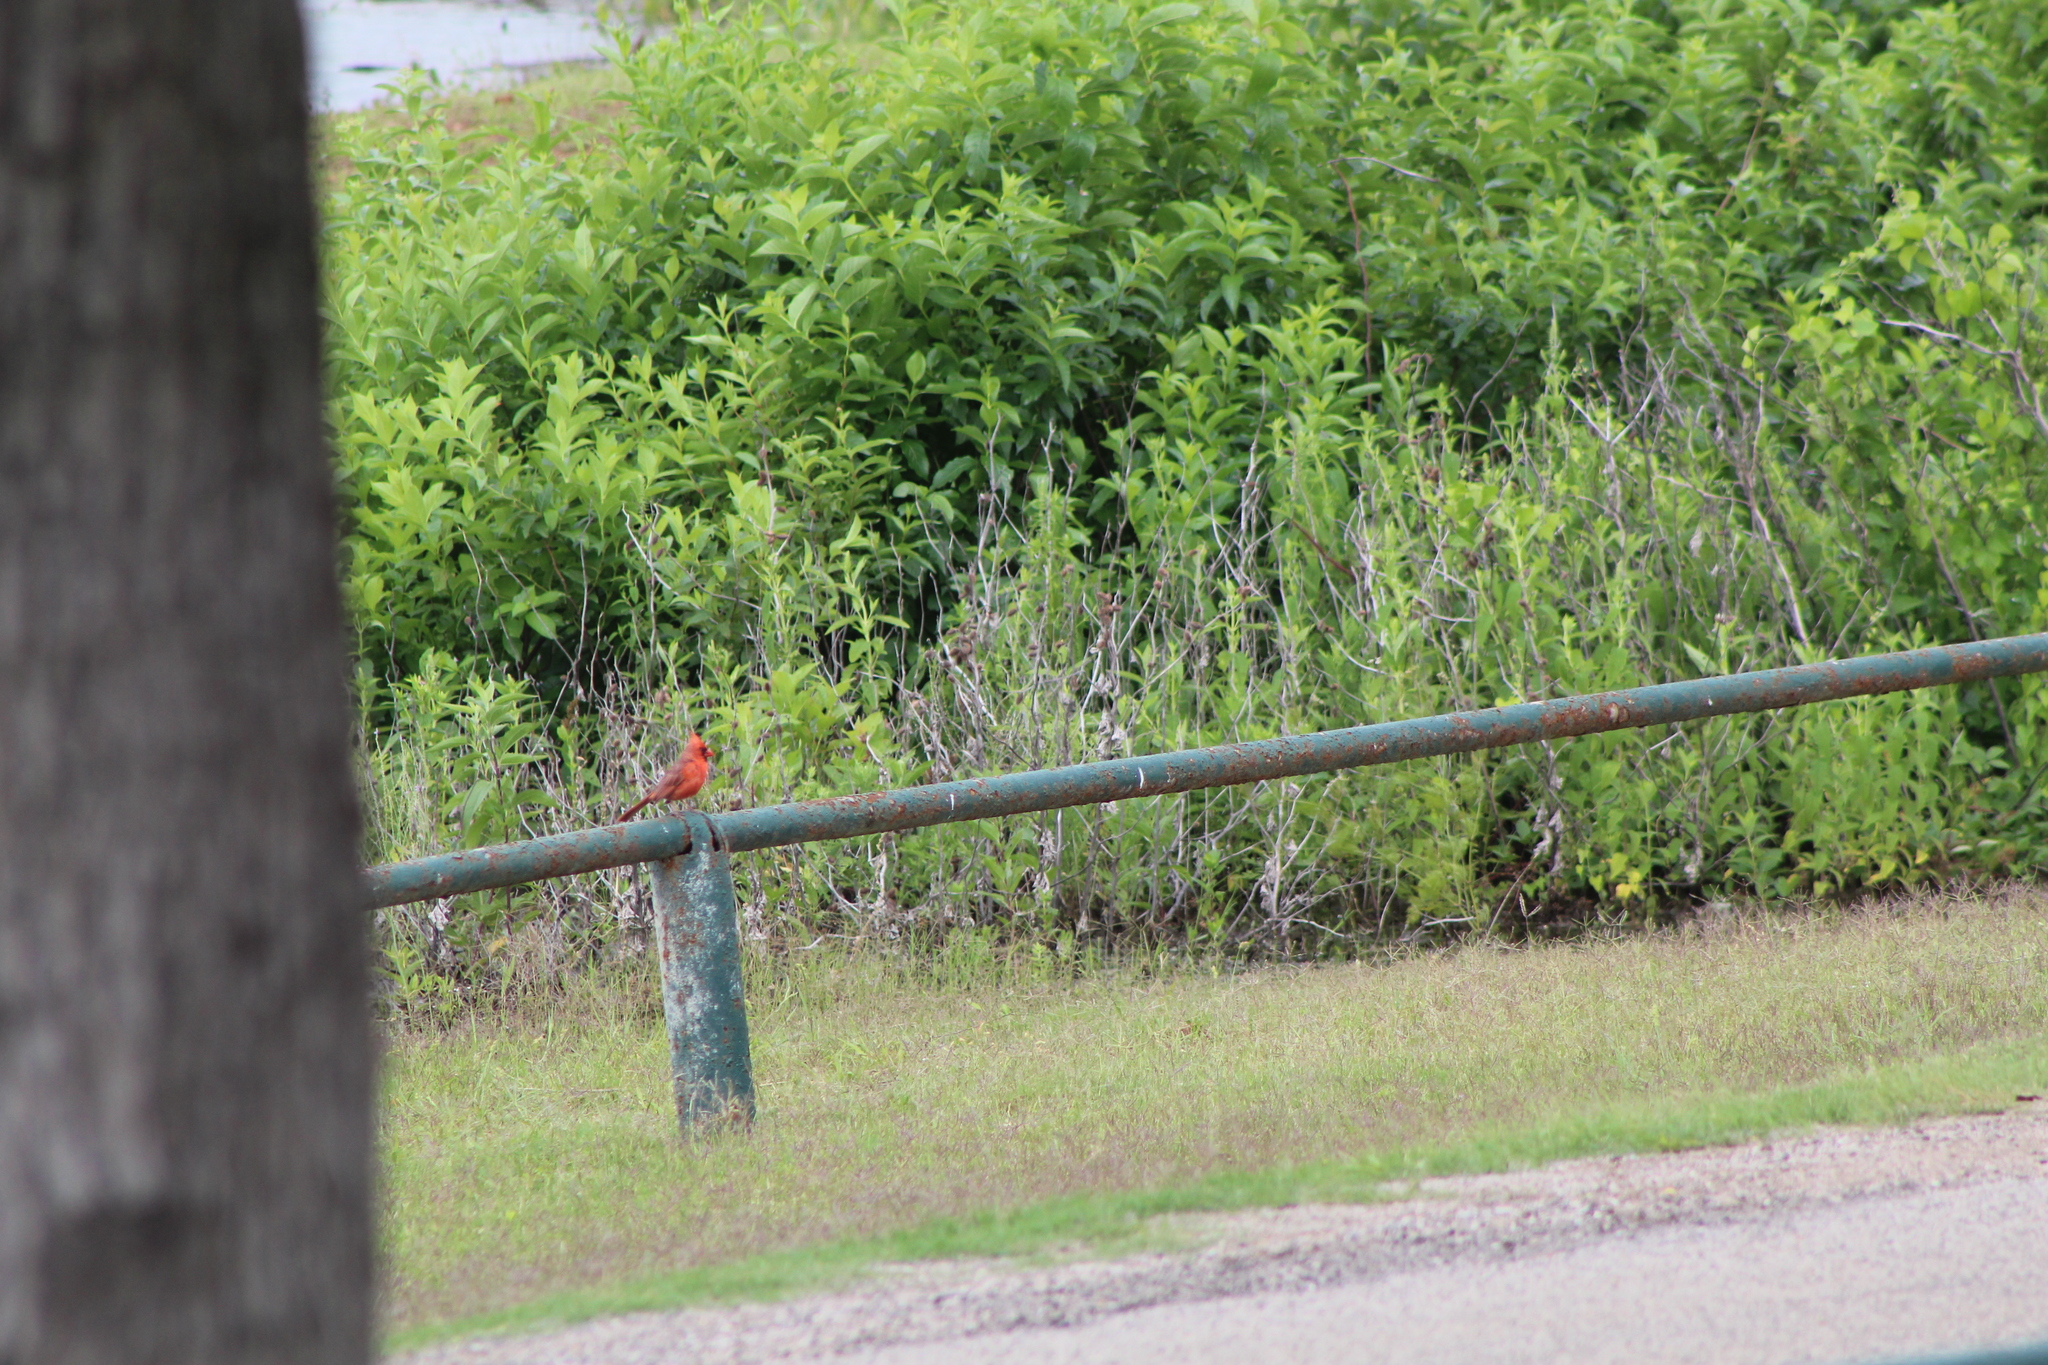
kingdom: Animalia
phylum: Chordata
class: Aves
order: Passeriformes
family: Cardinalidae
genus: Cardinalis
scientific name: Cardinalis cardinalis
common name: Northern cardinal
